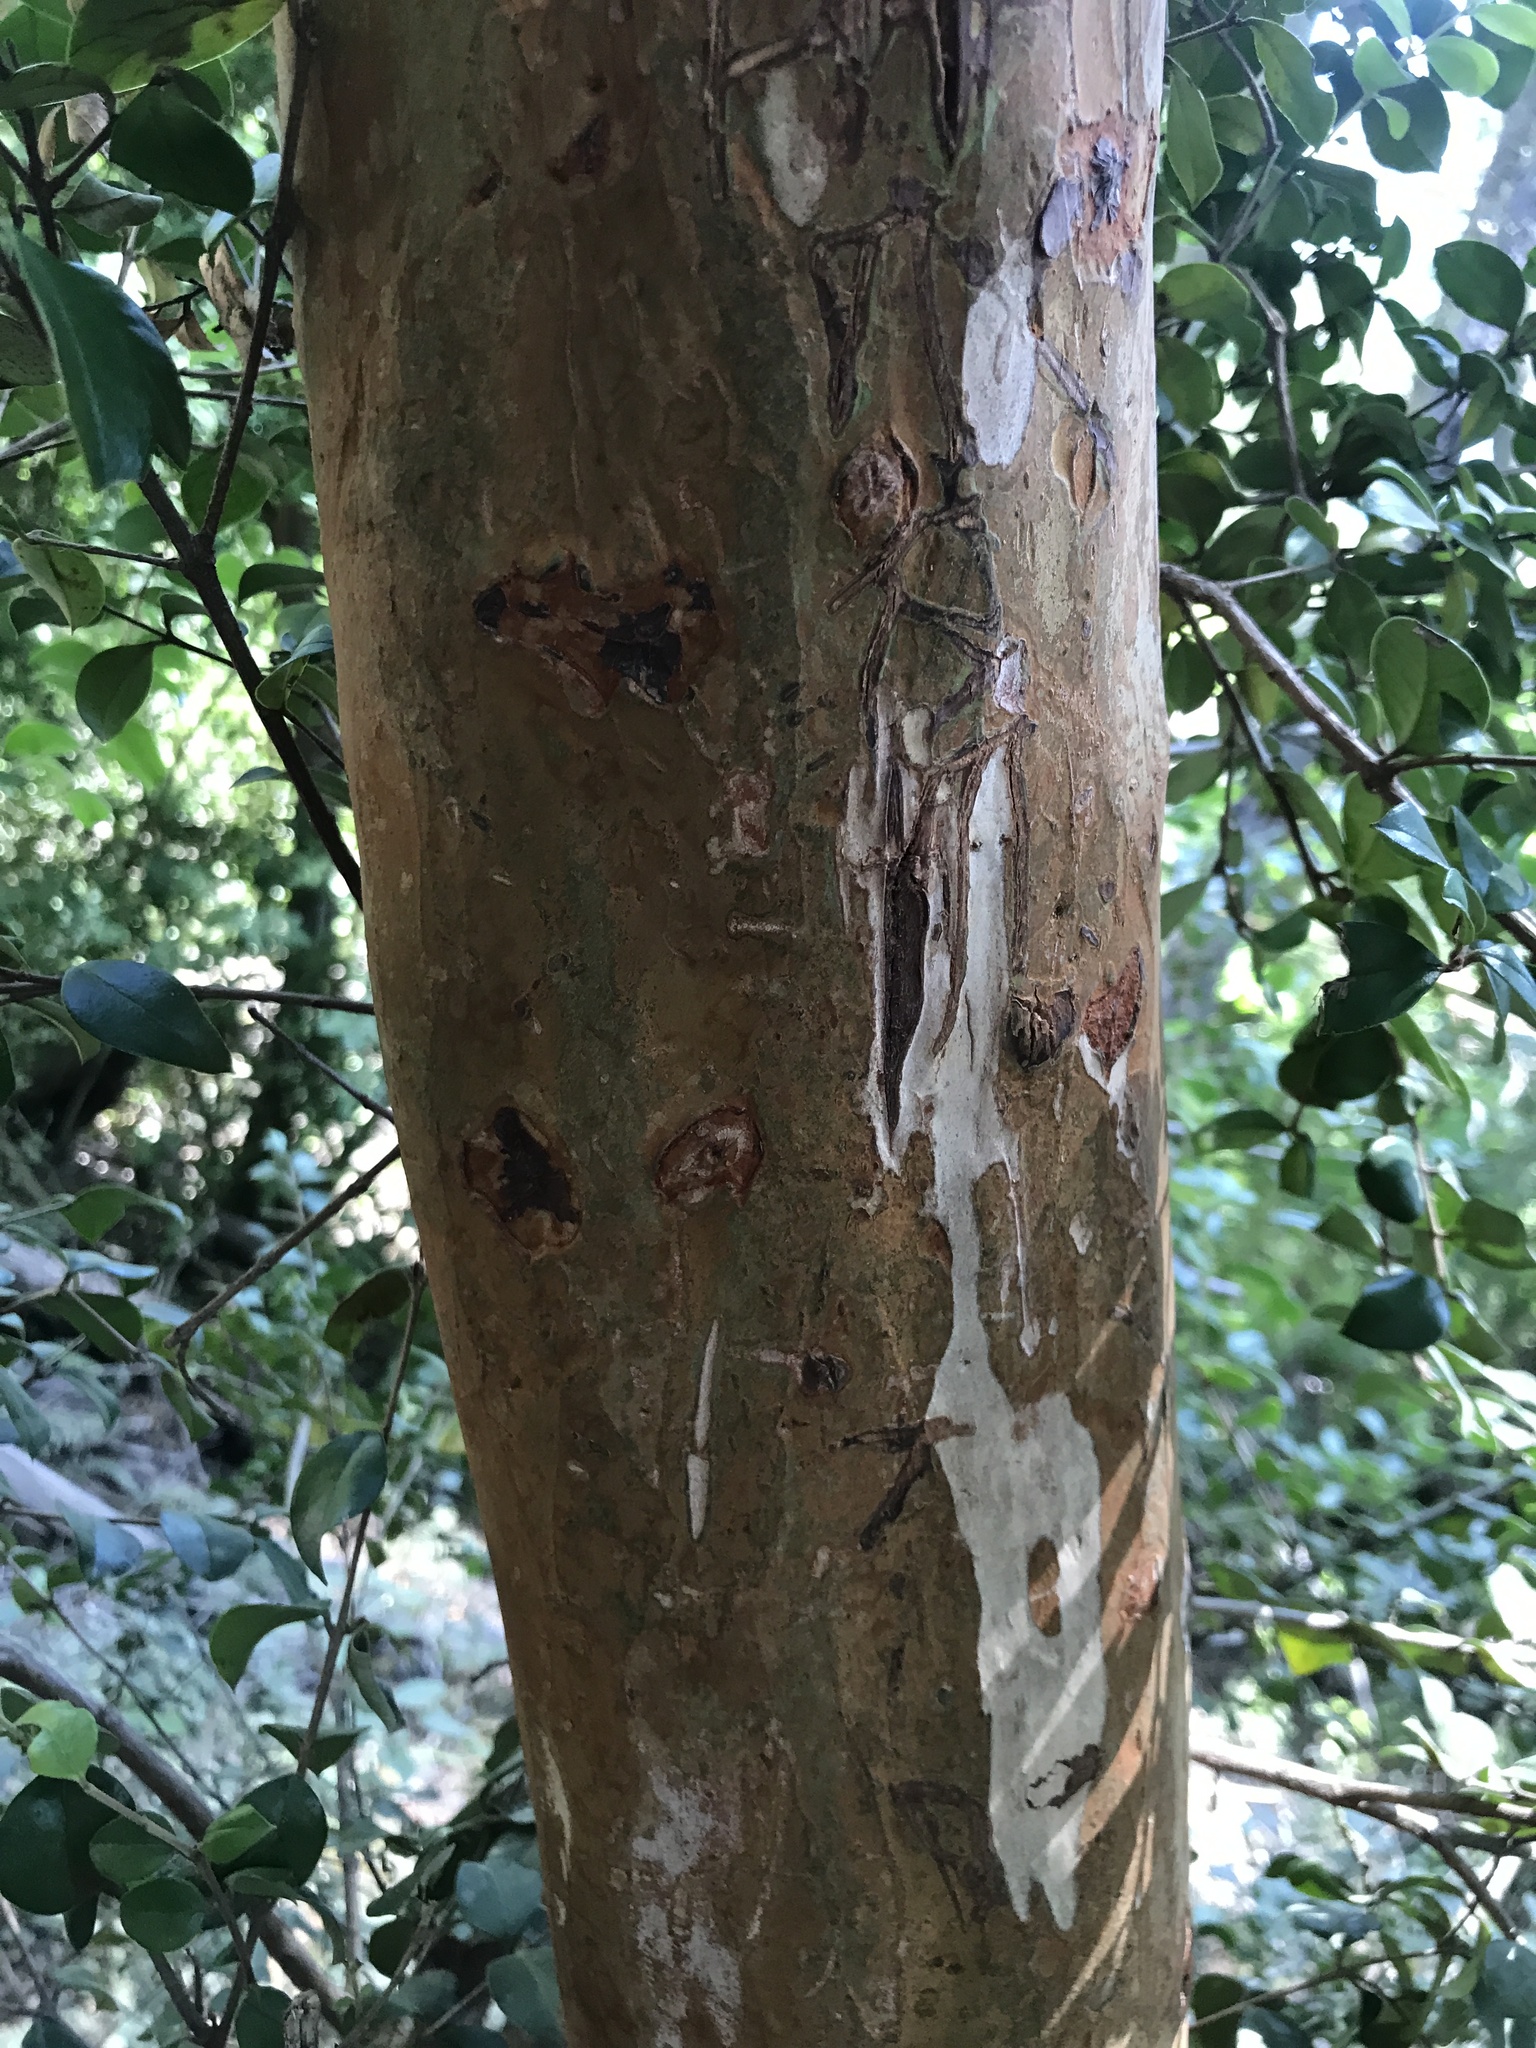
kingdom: Plantae
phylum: Tracheophyta
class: Magnoliopsida
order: Myrtales
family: Myrtaceae
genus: Luma
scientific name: Luma apiculata
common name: Chilean myrtle
